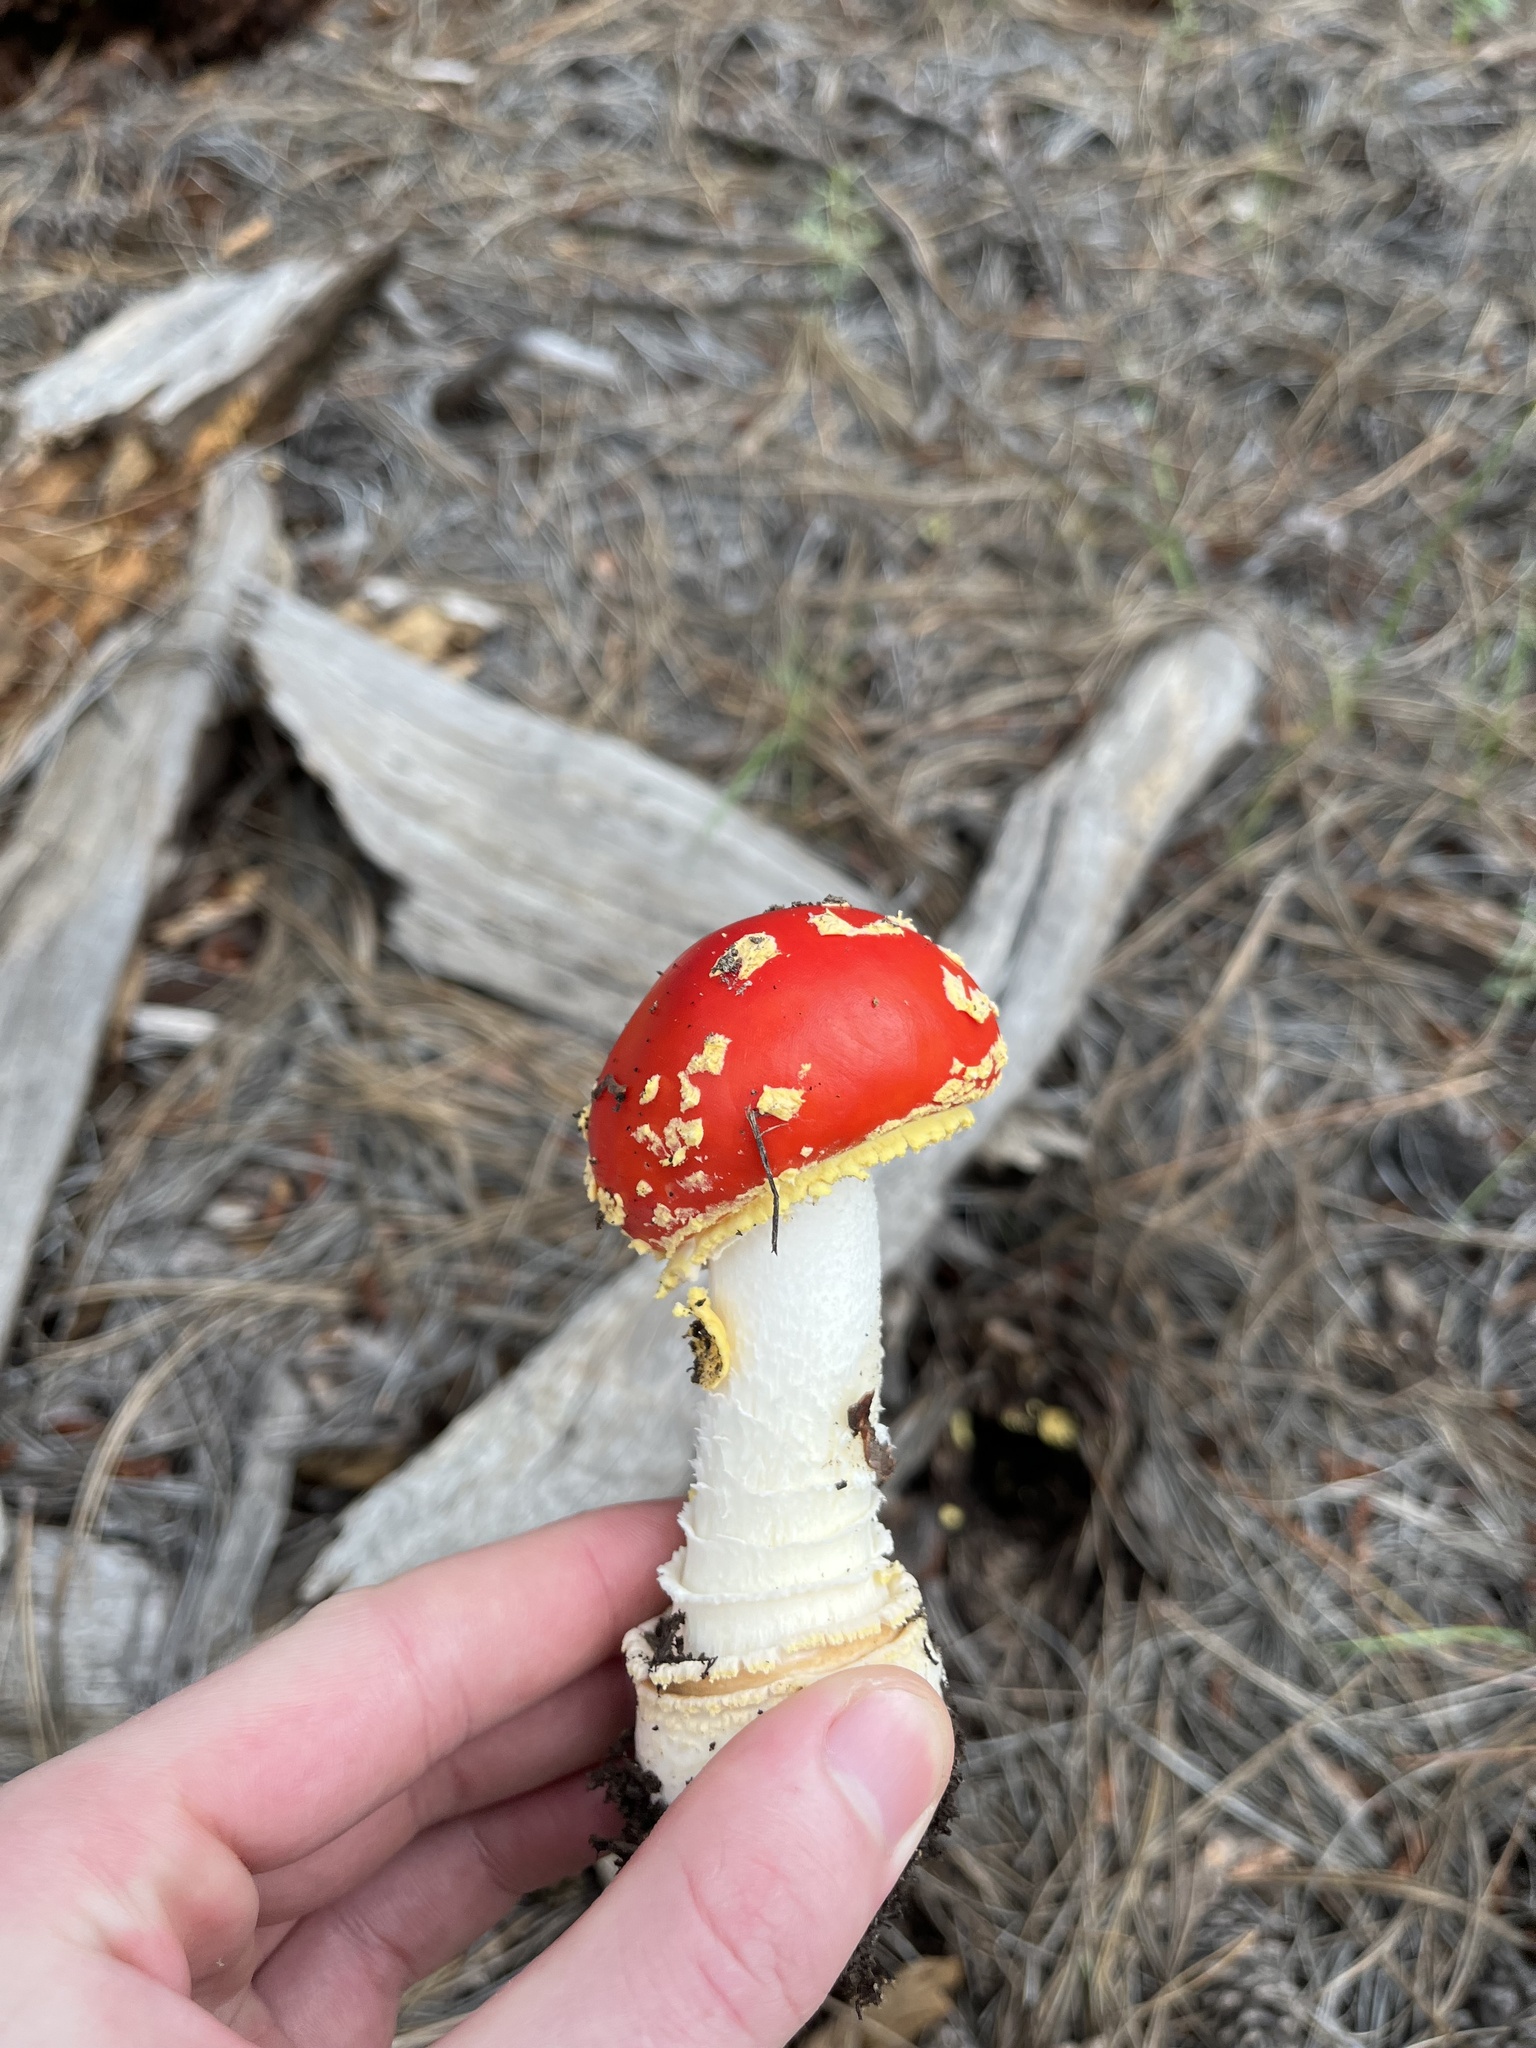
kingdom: Fungi
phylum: Basidiomycota
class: Agaricomycetes
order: Agaricales
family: Amanitaceae
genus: Amanita
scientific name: Amanita muscaria
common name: Fly agaric
